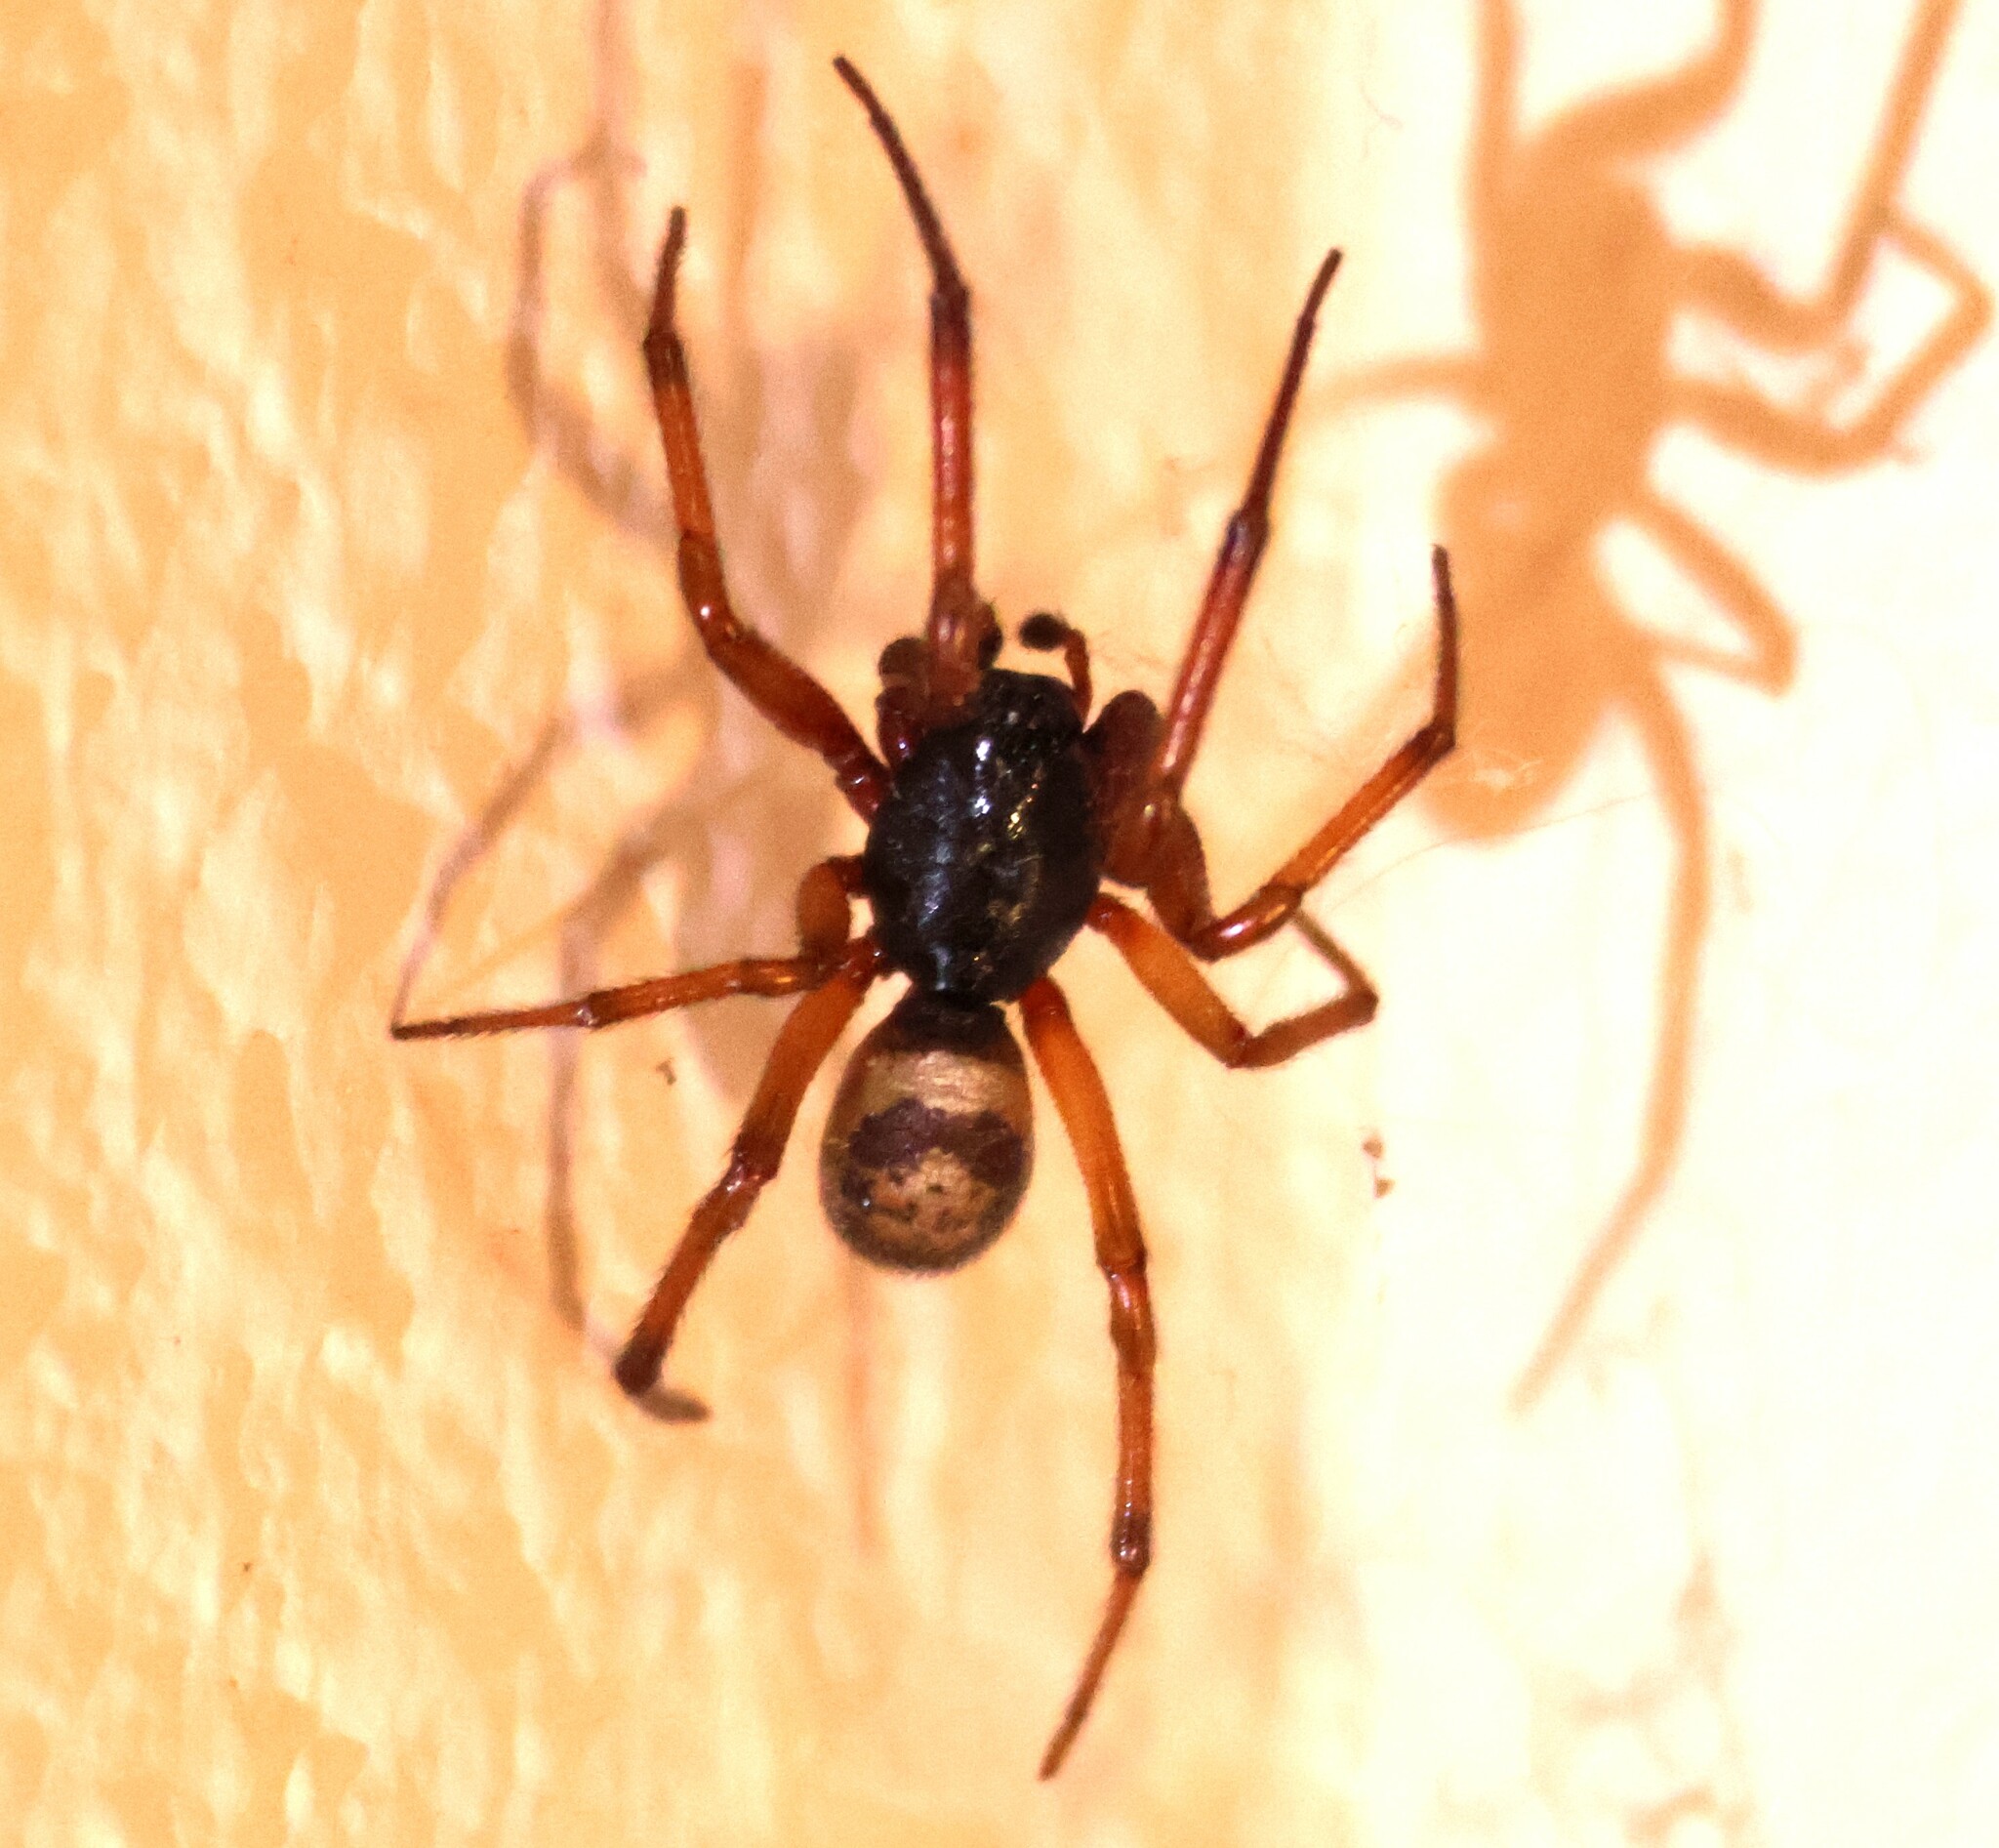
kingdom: Animalia
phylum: Arthropoda
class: Arachnida
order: Araneae
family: Theridiidae
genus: Steatoda
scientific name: Steatoda nobilis
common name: Cobweb weaver
